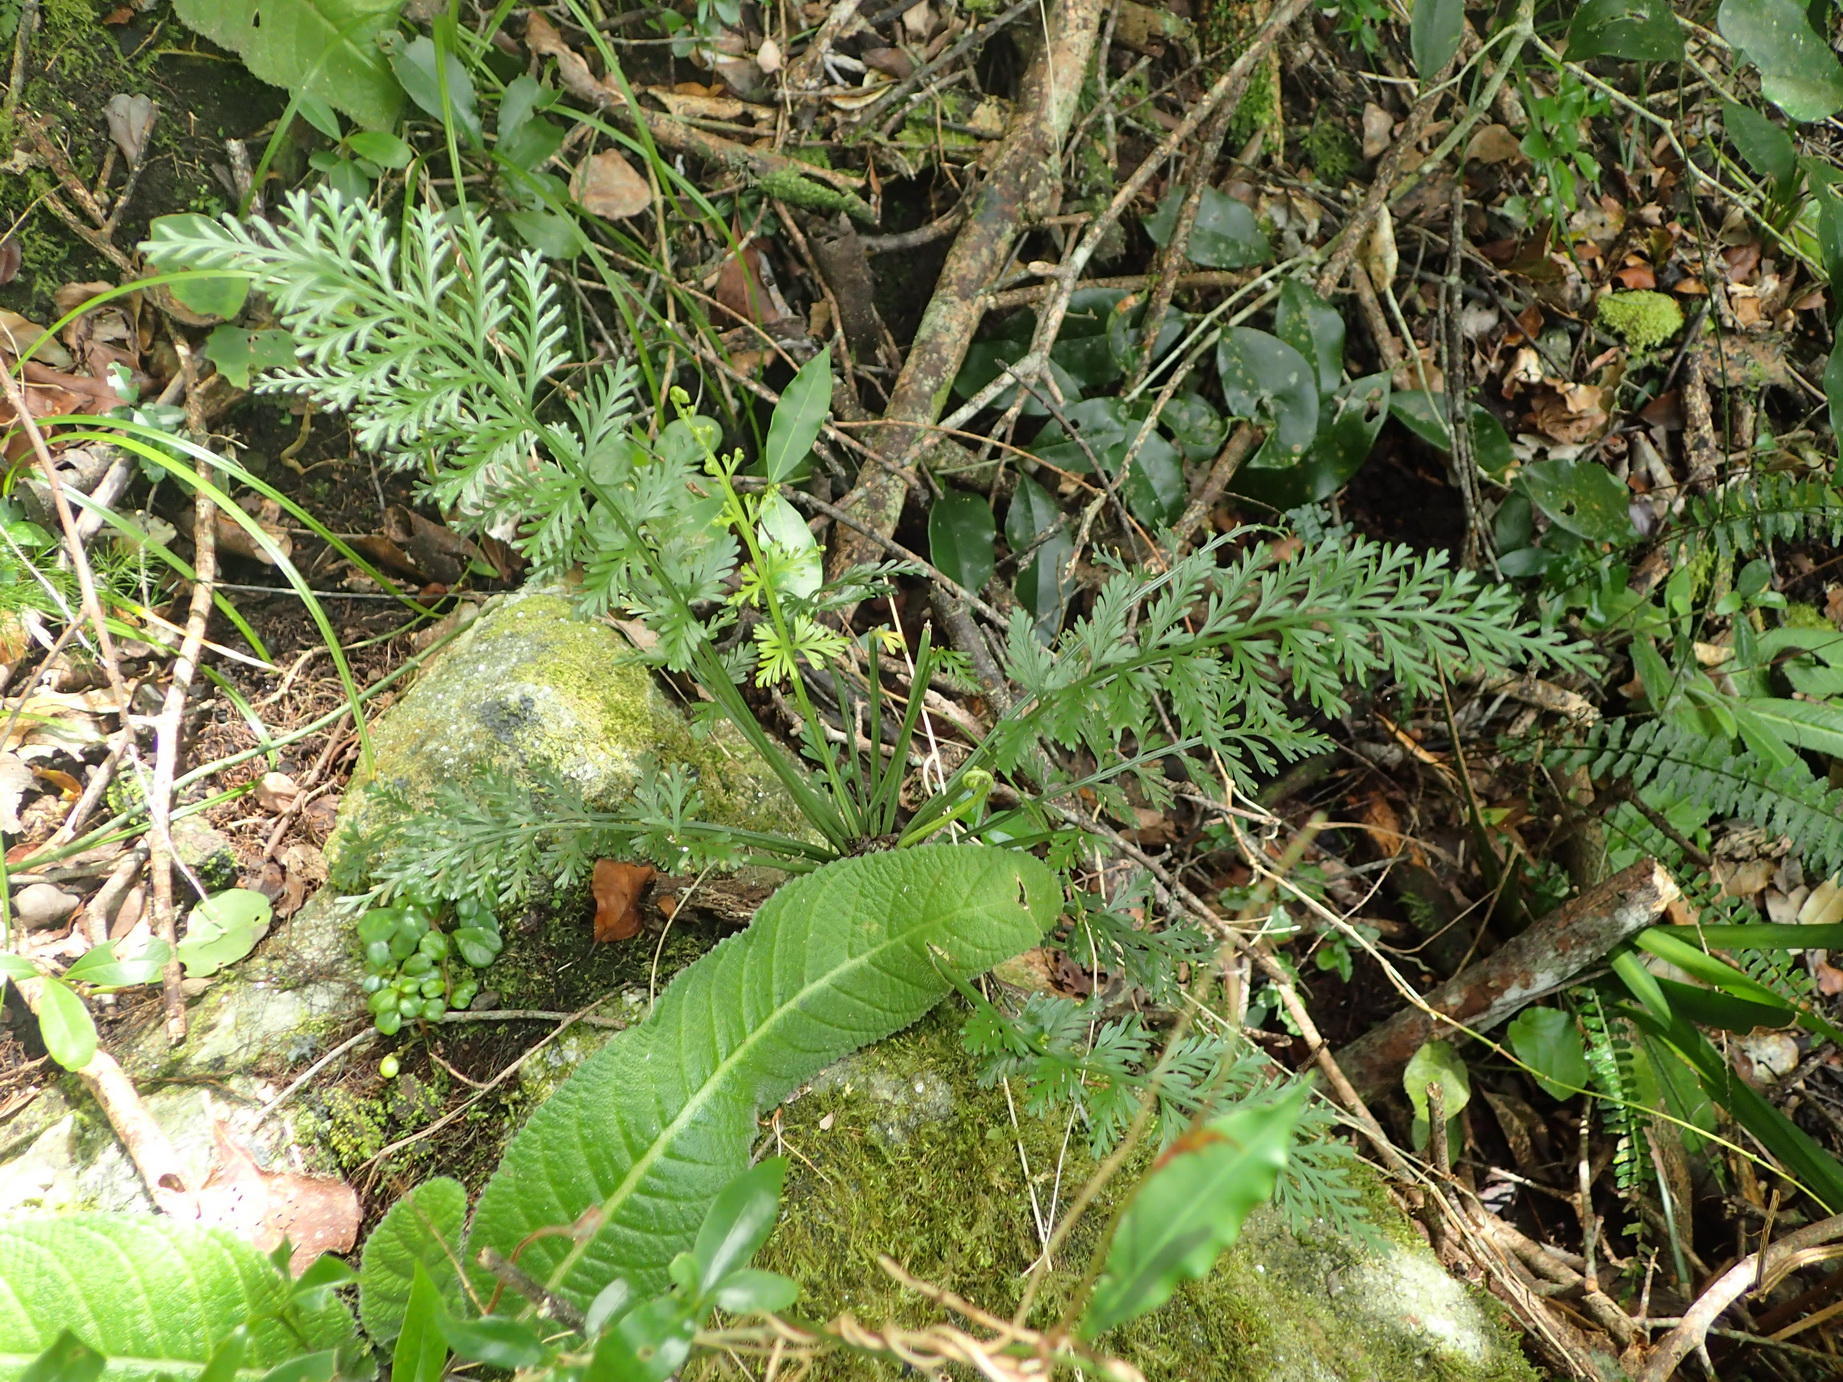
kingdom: Plantae
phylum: Tracheophyta
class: Polypodiopsida
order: Polypodiales
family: Aspleniaceae
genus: Asplenium
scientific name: Asplenium rutifolium
